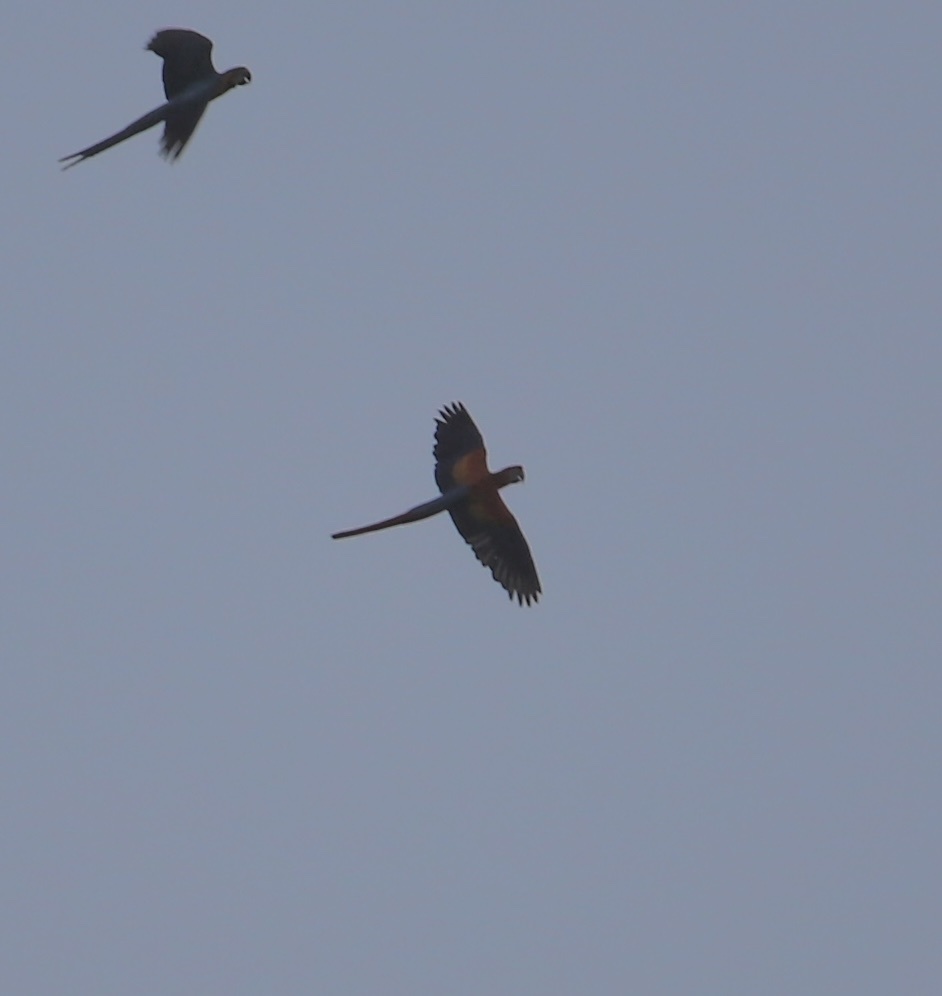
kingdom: Animalia
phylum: Chordata
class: Aves
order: Psittaciformes
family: Psittacidae
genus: Ara
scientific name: Ara ararauna
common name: Blue-and-yellow macaw
